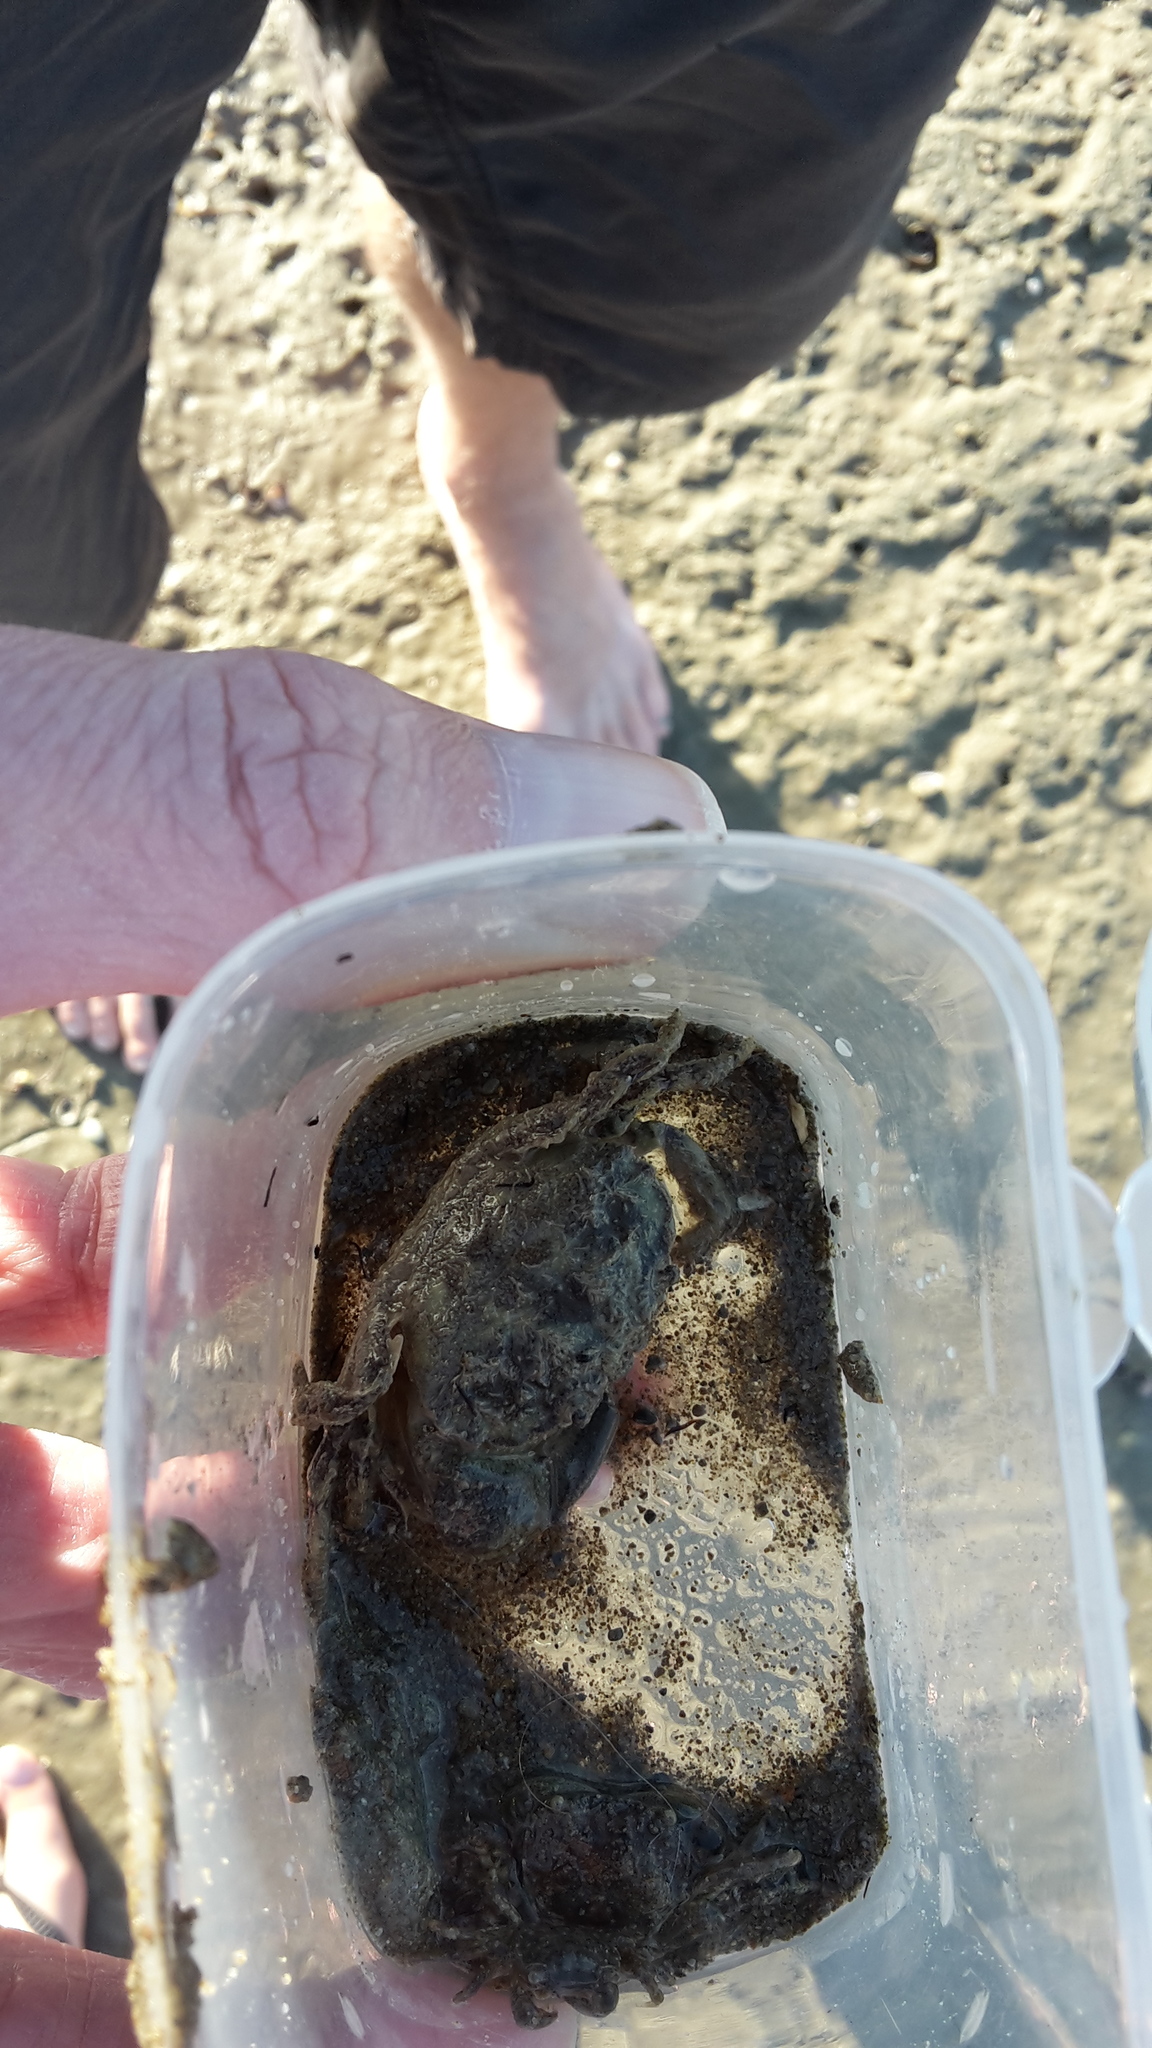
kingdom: Animalia
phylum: Arthropoda
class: Malacostraca
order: Decapoda
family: Pilumnidae
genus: Pilumnopeus
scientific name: Pilumnopeus serratifrons
